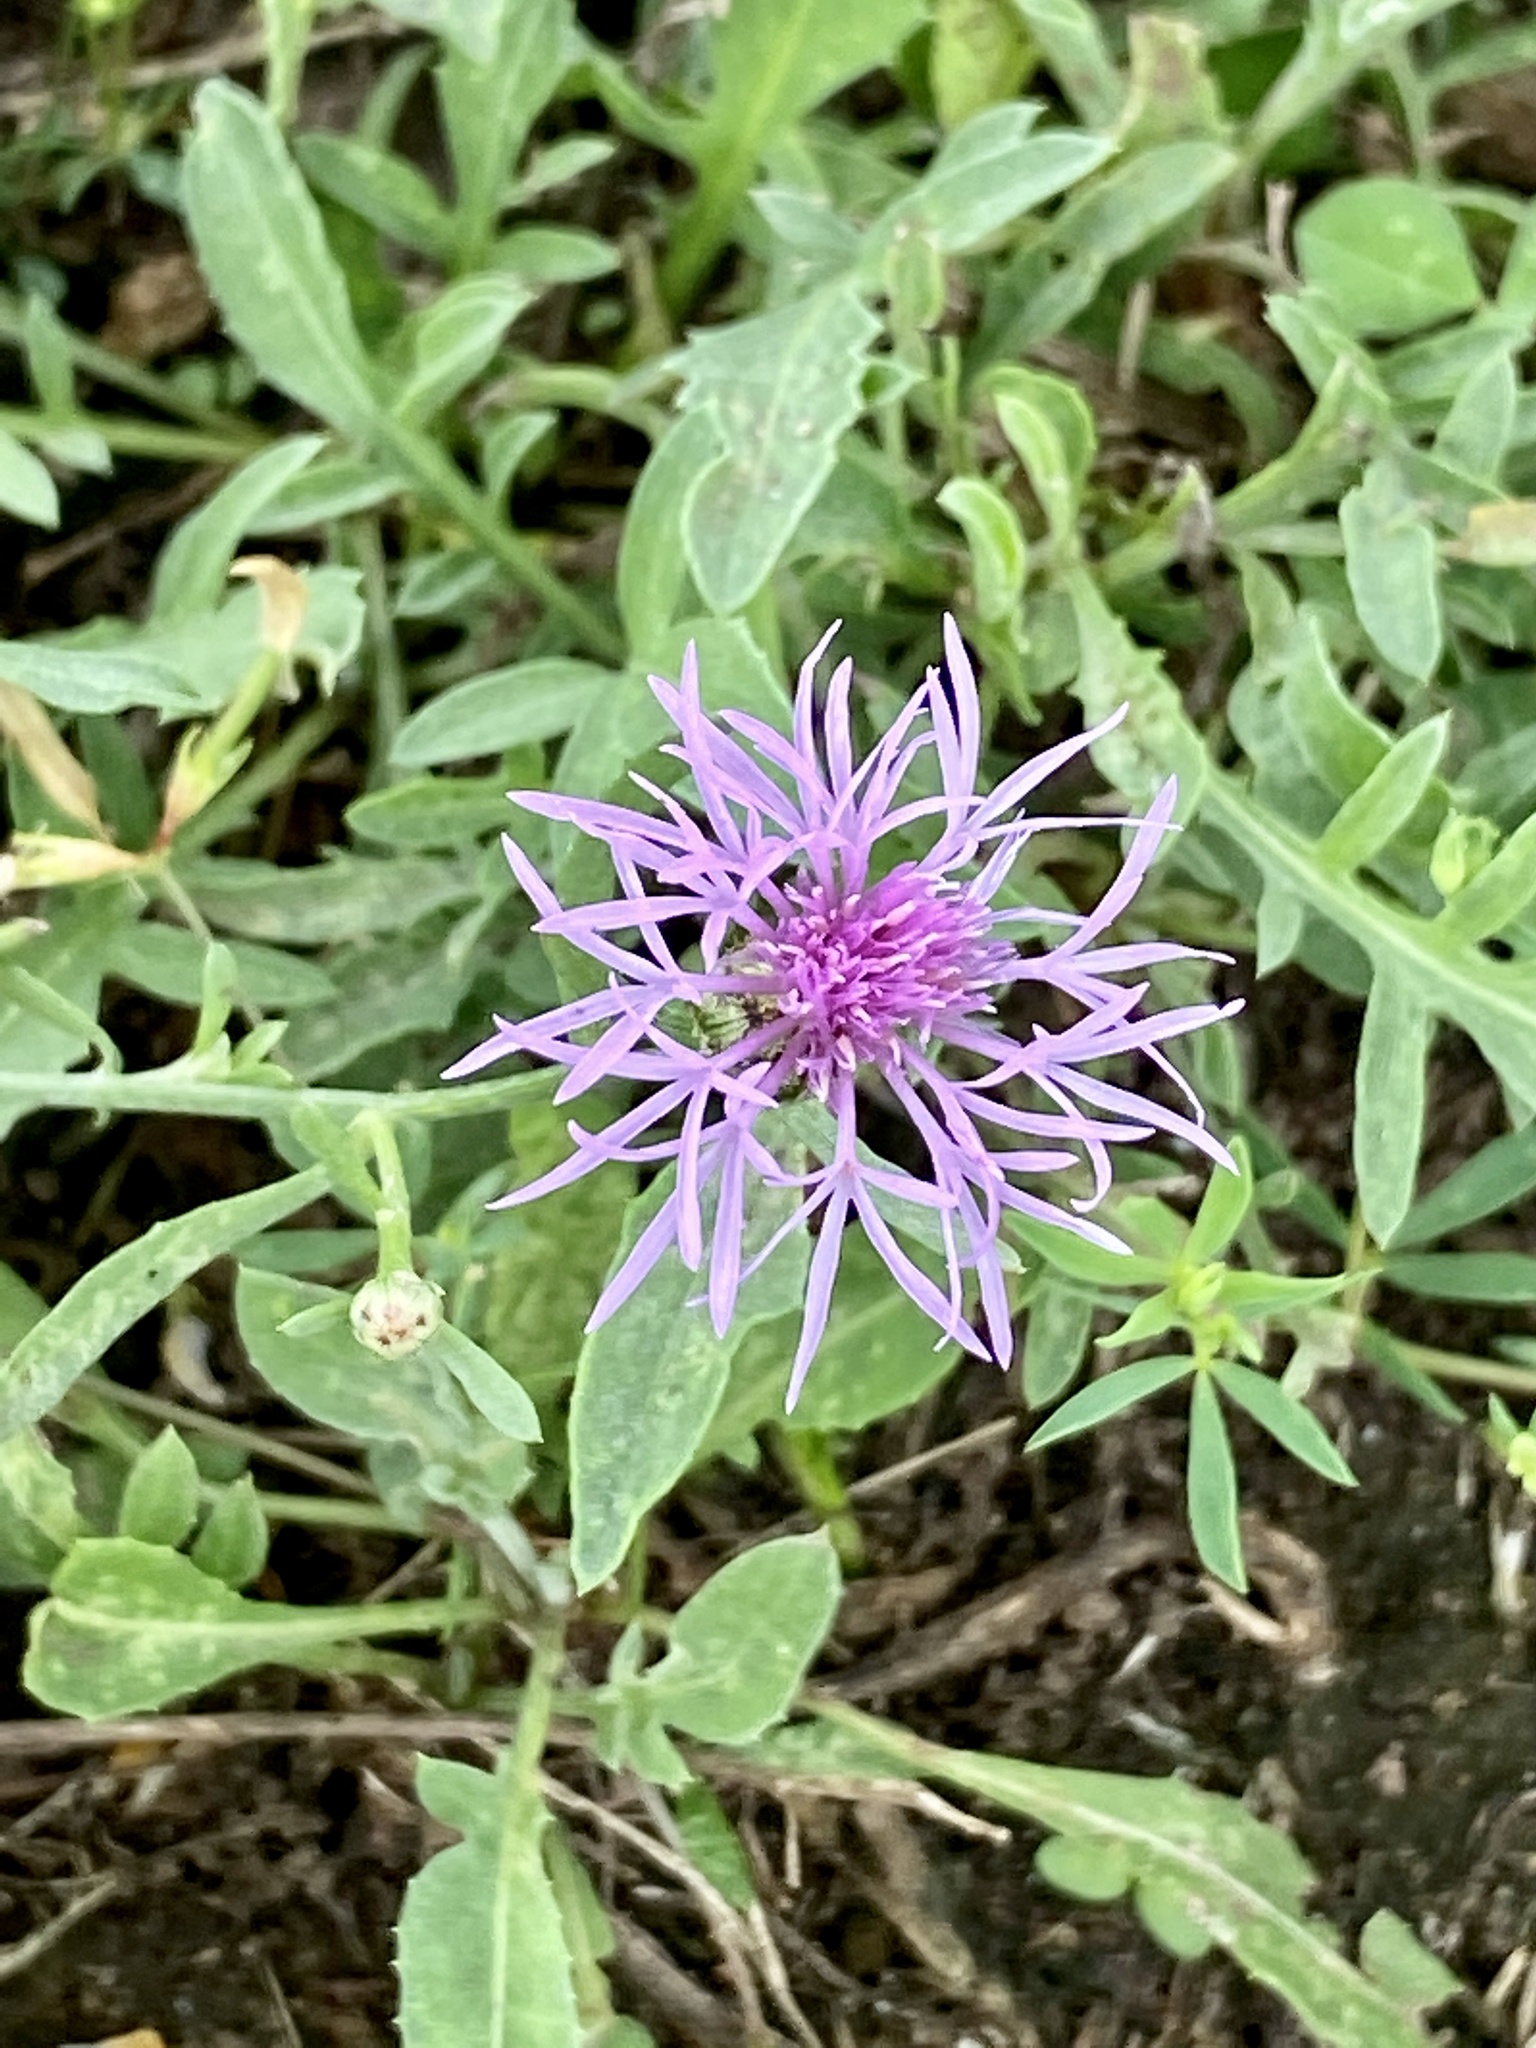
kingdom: Plantae
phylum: Tracheophyta
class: Magnoliopsida
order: Asterales
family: Asteraceae
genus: Centaurea
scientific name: Centaurea stoebe
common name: Spotted knapweed
